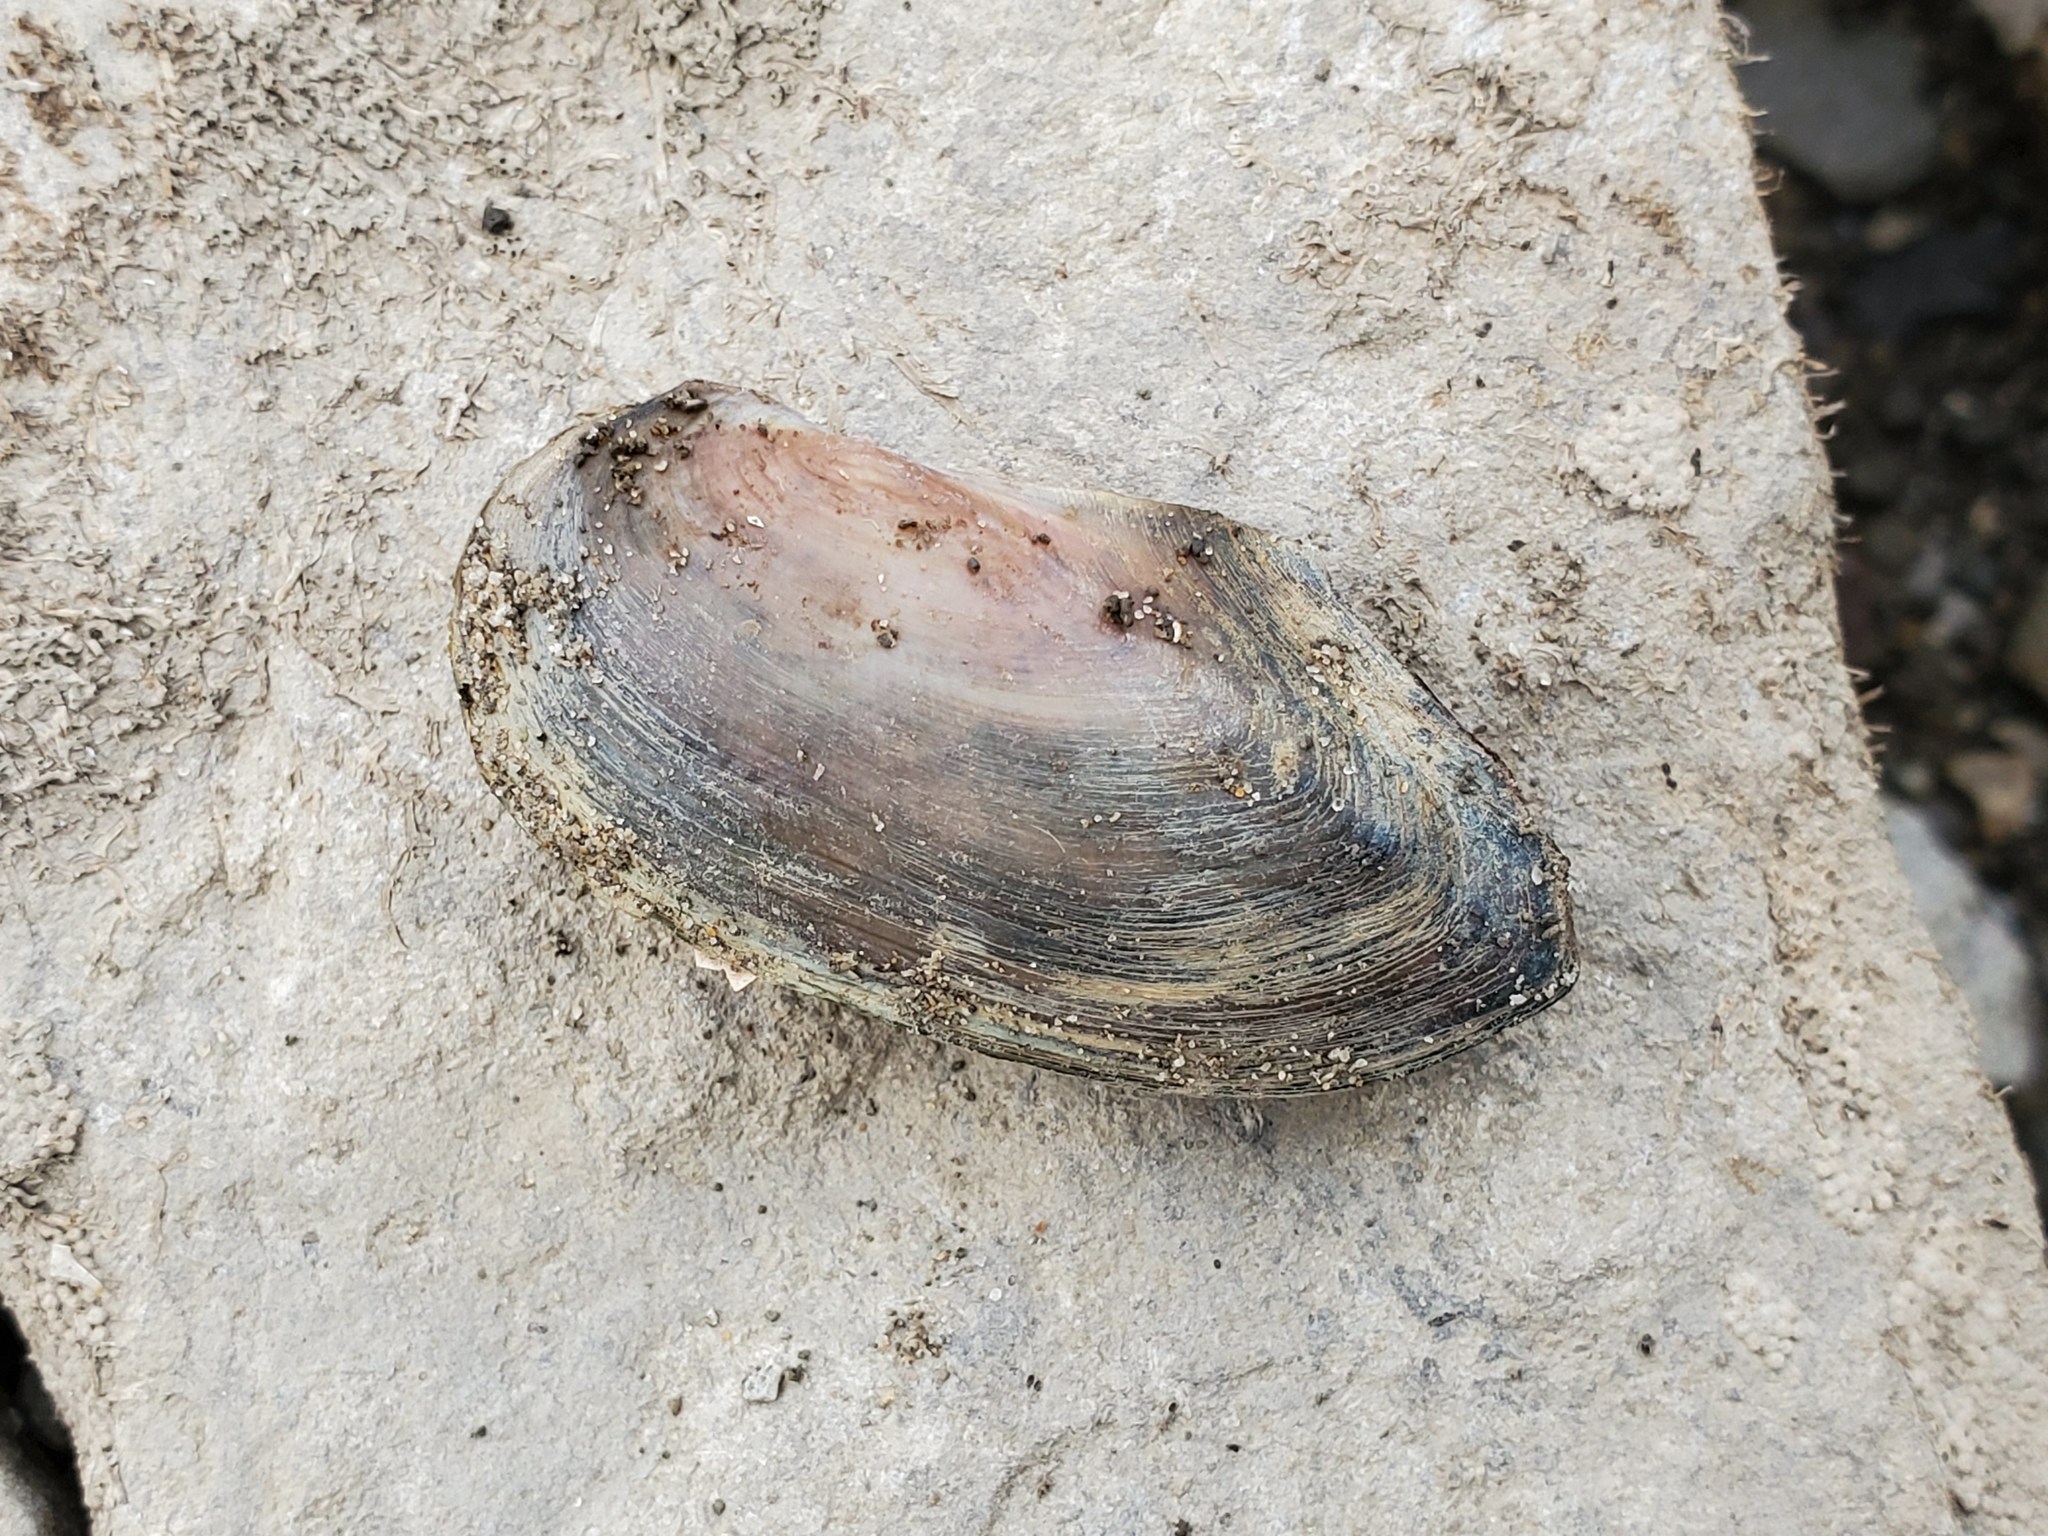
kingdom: Animalia
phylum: Mollusca
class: Bivalvia
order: Unionida
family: Unionidae
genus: Utterbackia
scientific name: Utterbackia imbecillis
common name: Paper pondshell
